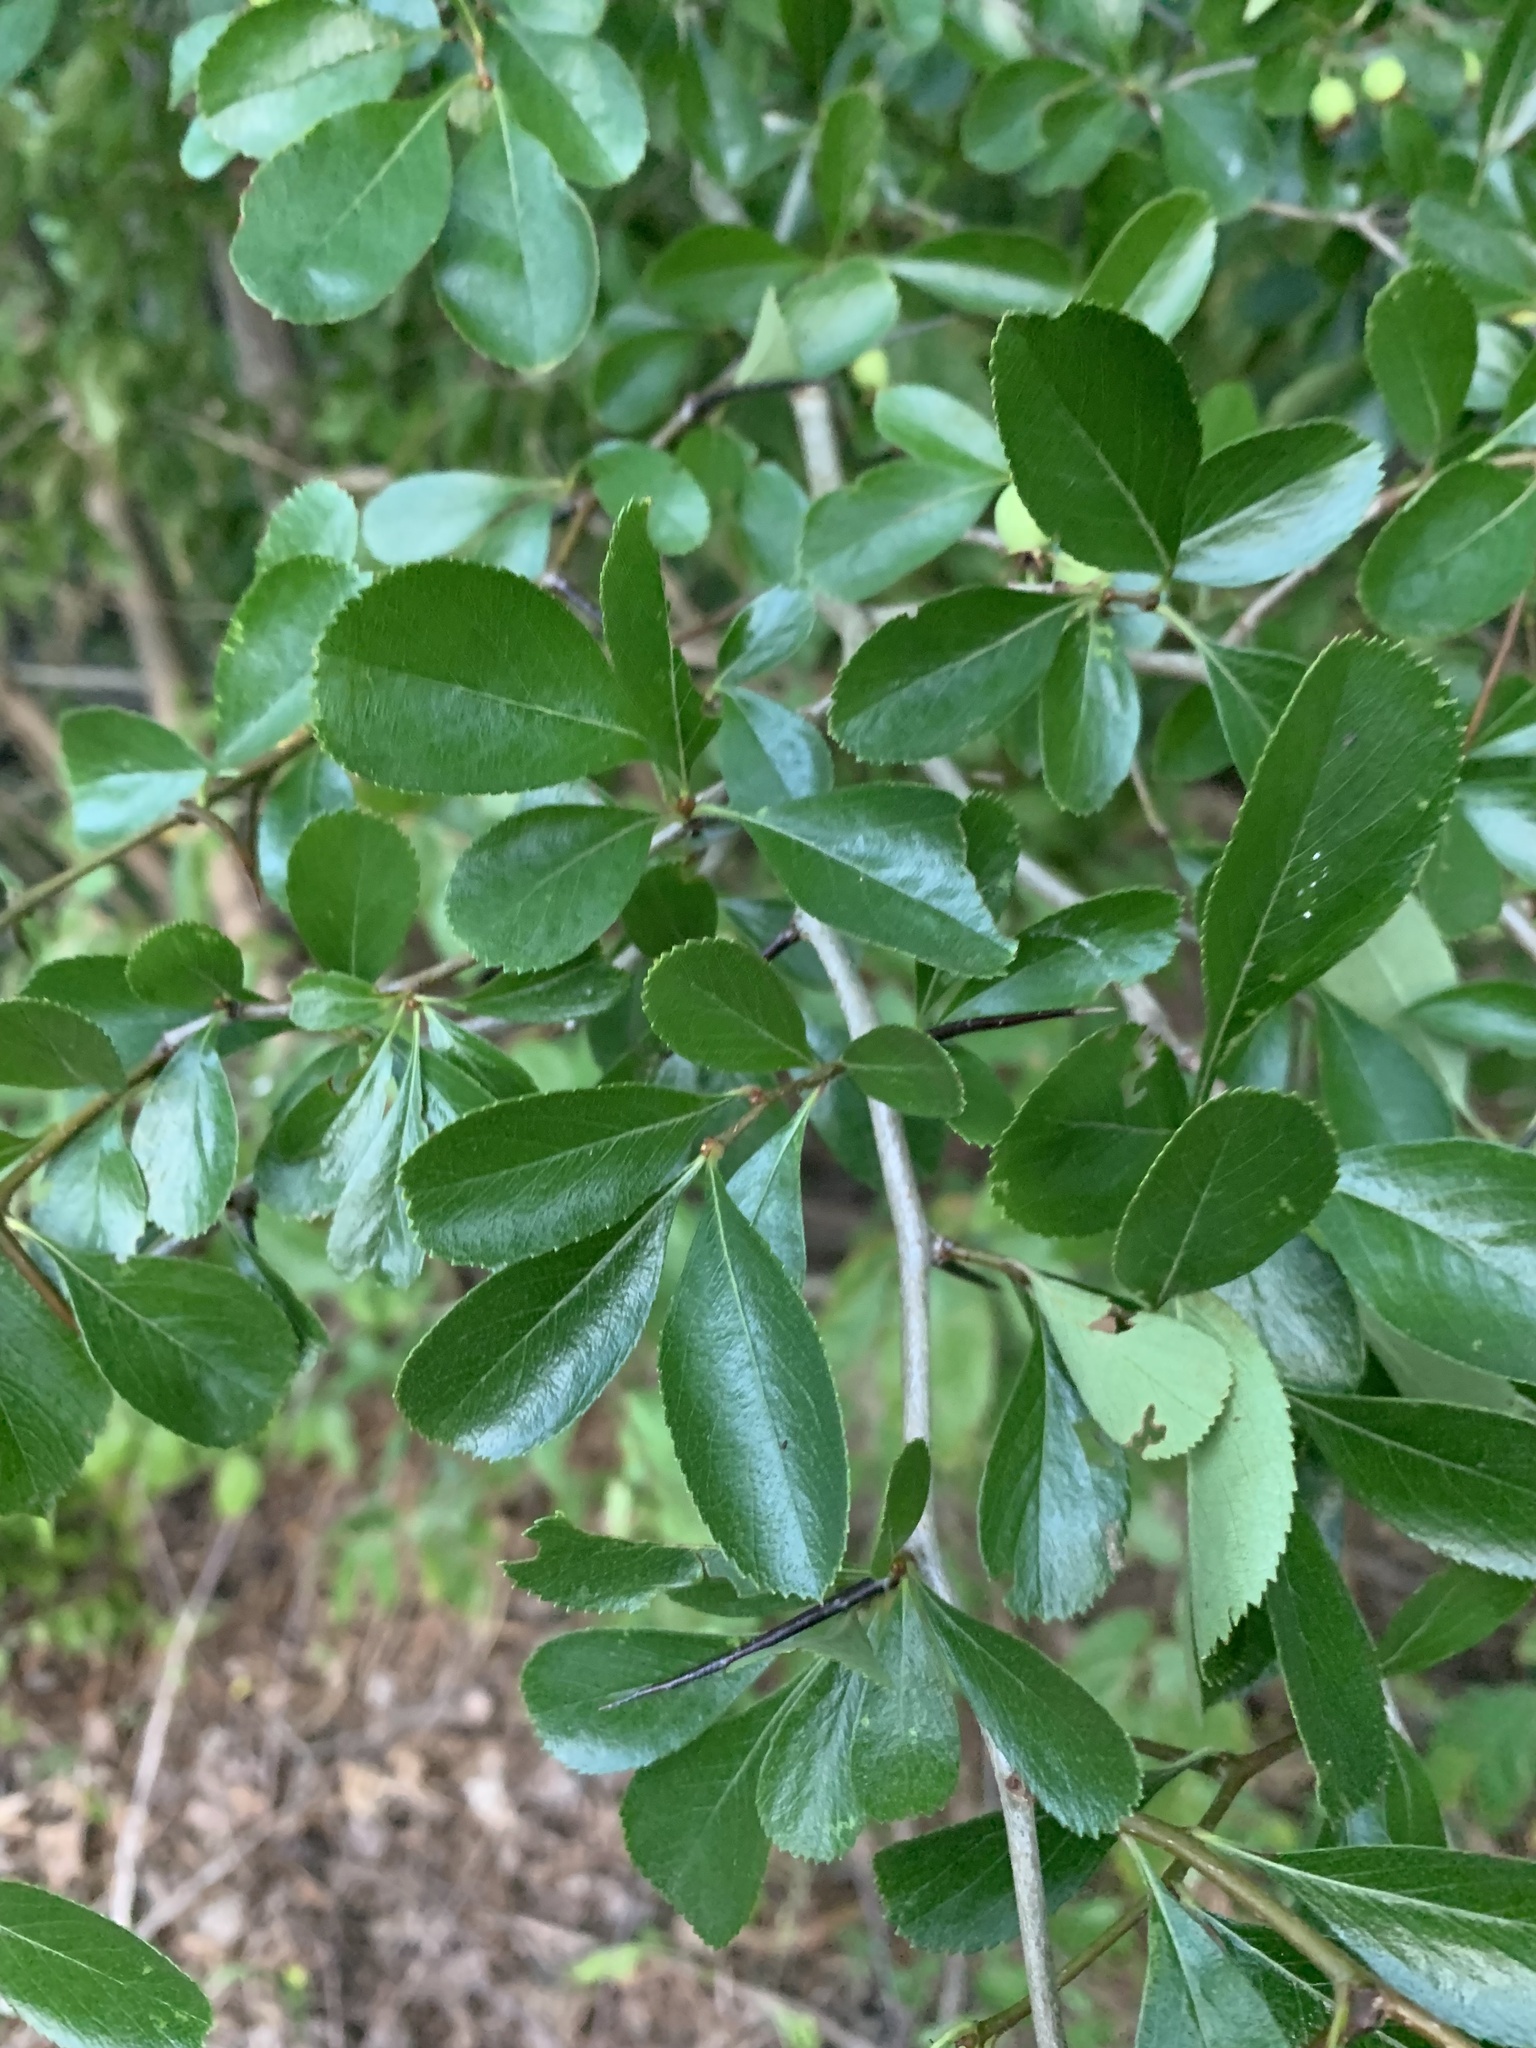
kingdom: Plantae
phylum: Tracheophyta
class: Magnoliopsida
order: Rosales
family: Rosaceae
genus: Crataegus
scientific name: Crataegus crus-galli
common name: Cockspurthorn
